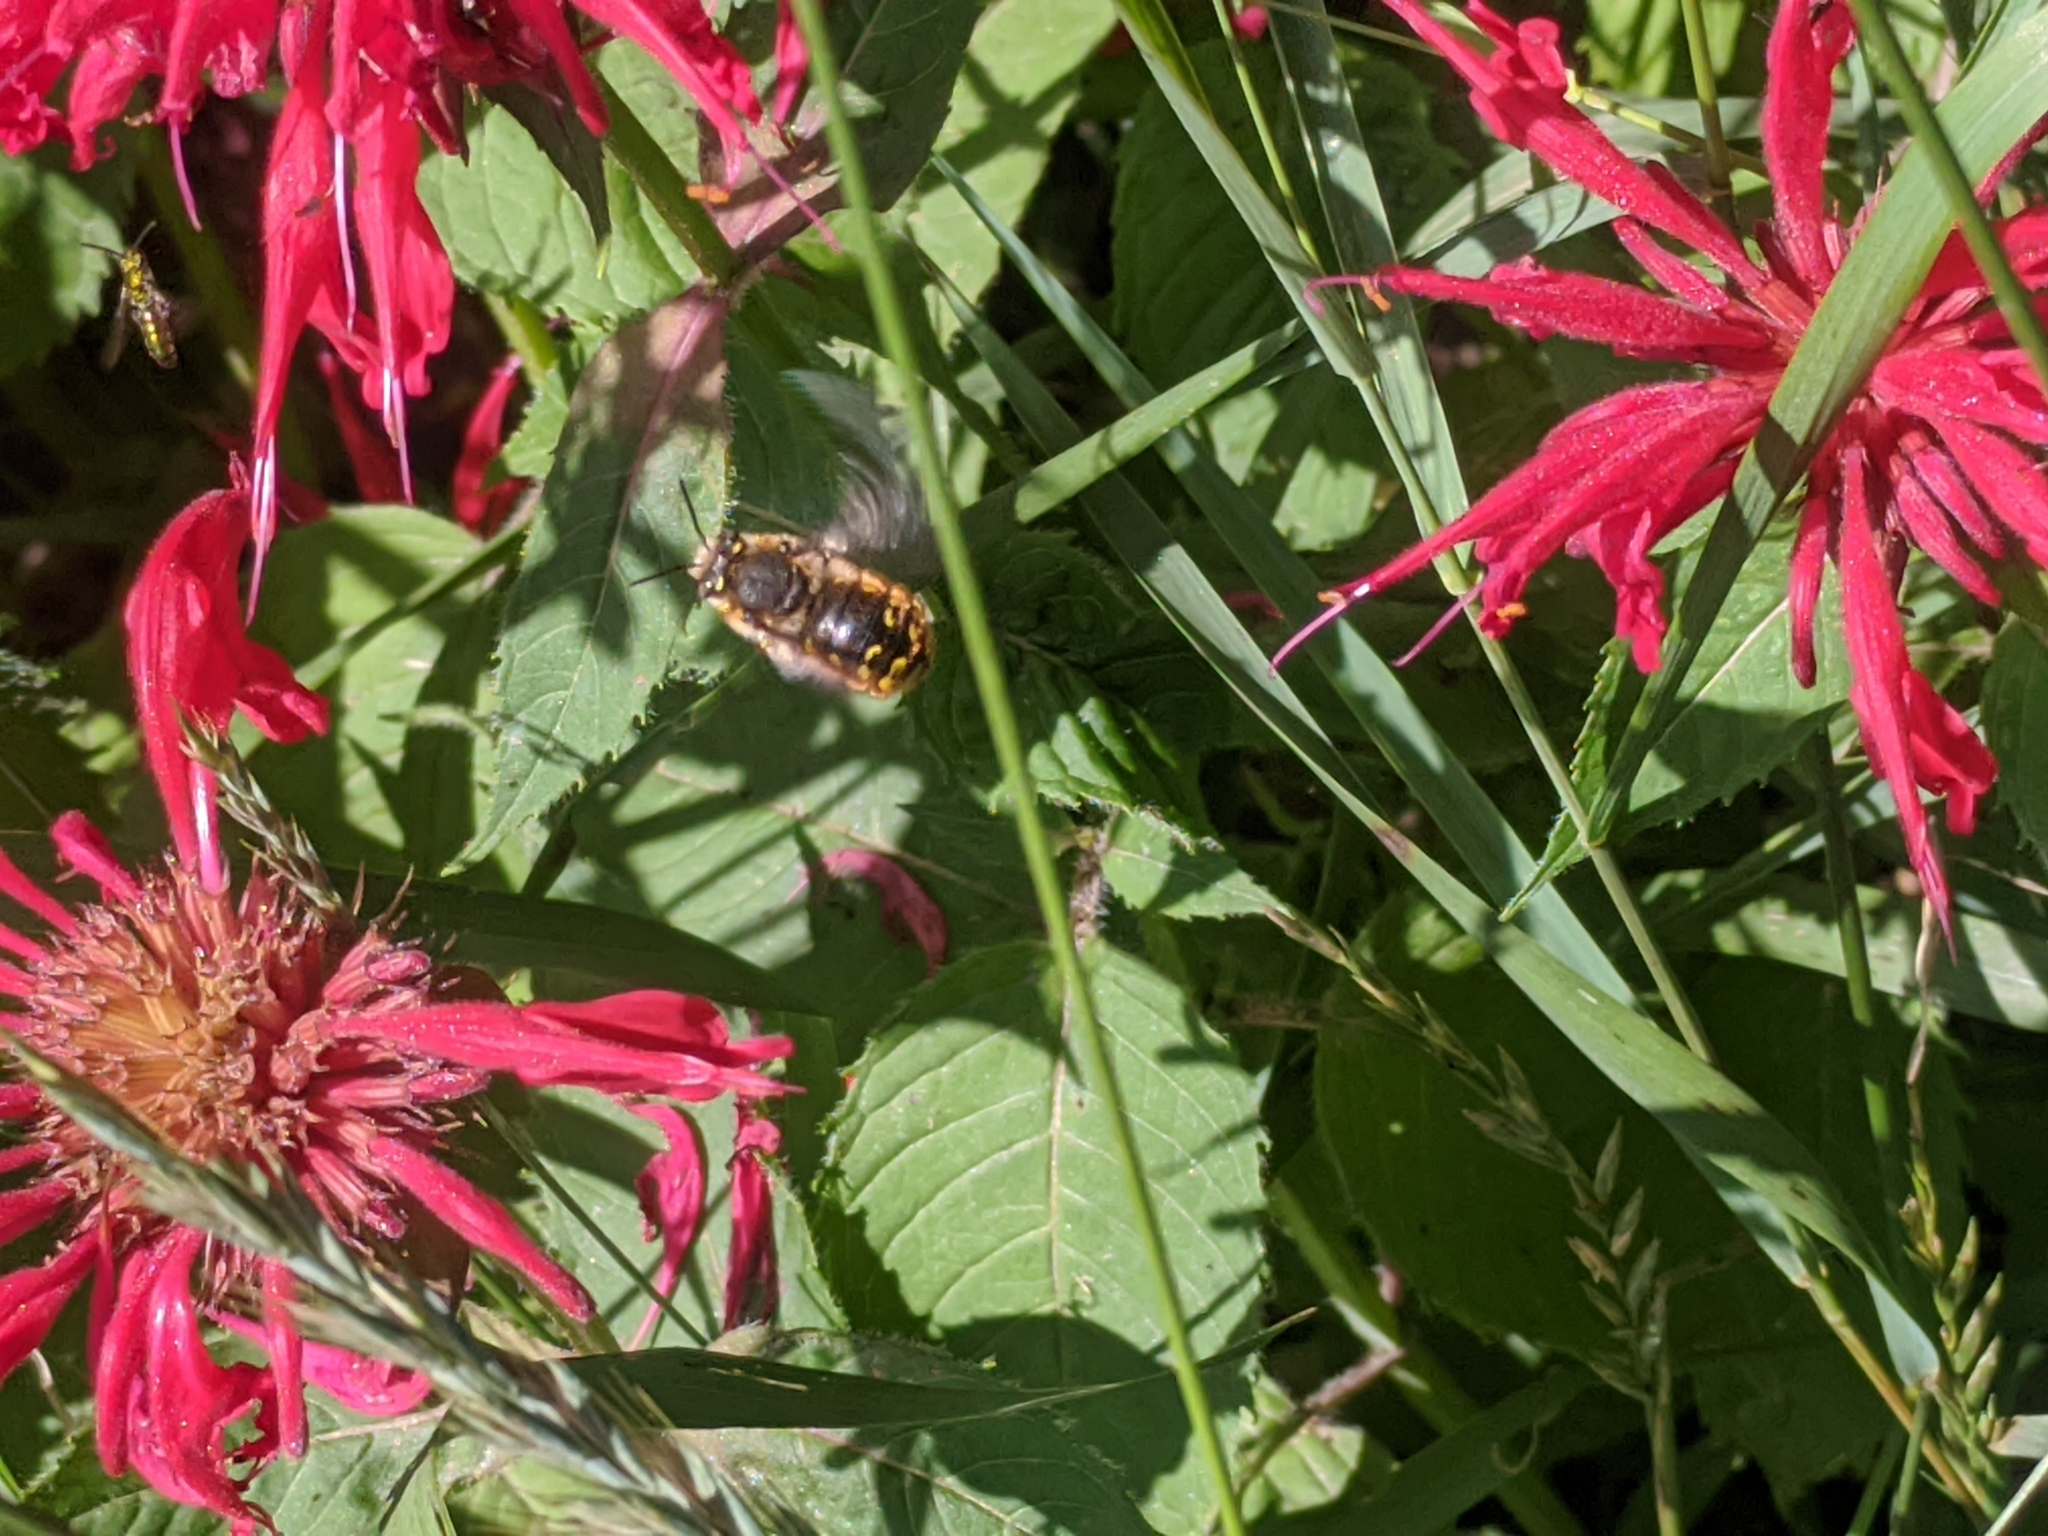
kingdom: Animalia
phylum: Arthropoda
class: Insecta
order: Hymenoptera
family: Megachilidae
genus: Anthidium
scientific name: Anthidium manicatum
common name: Wool carder bee
